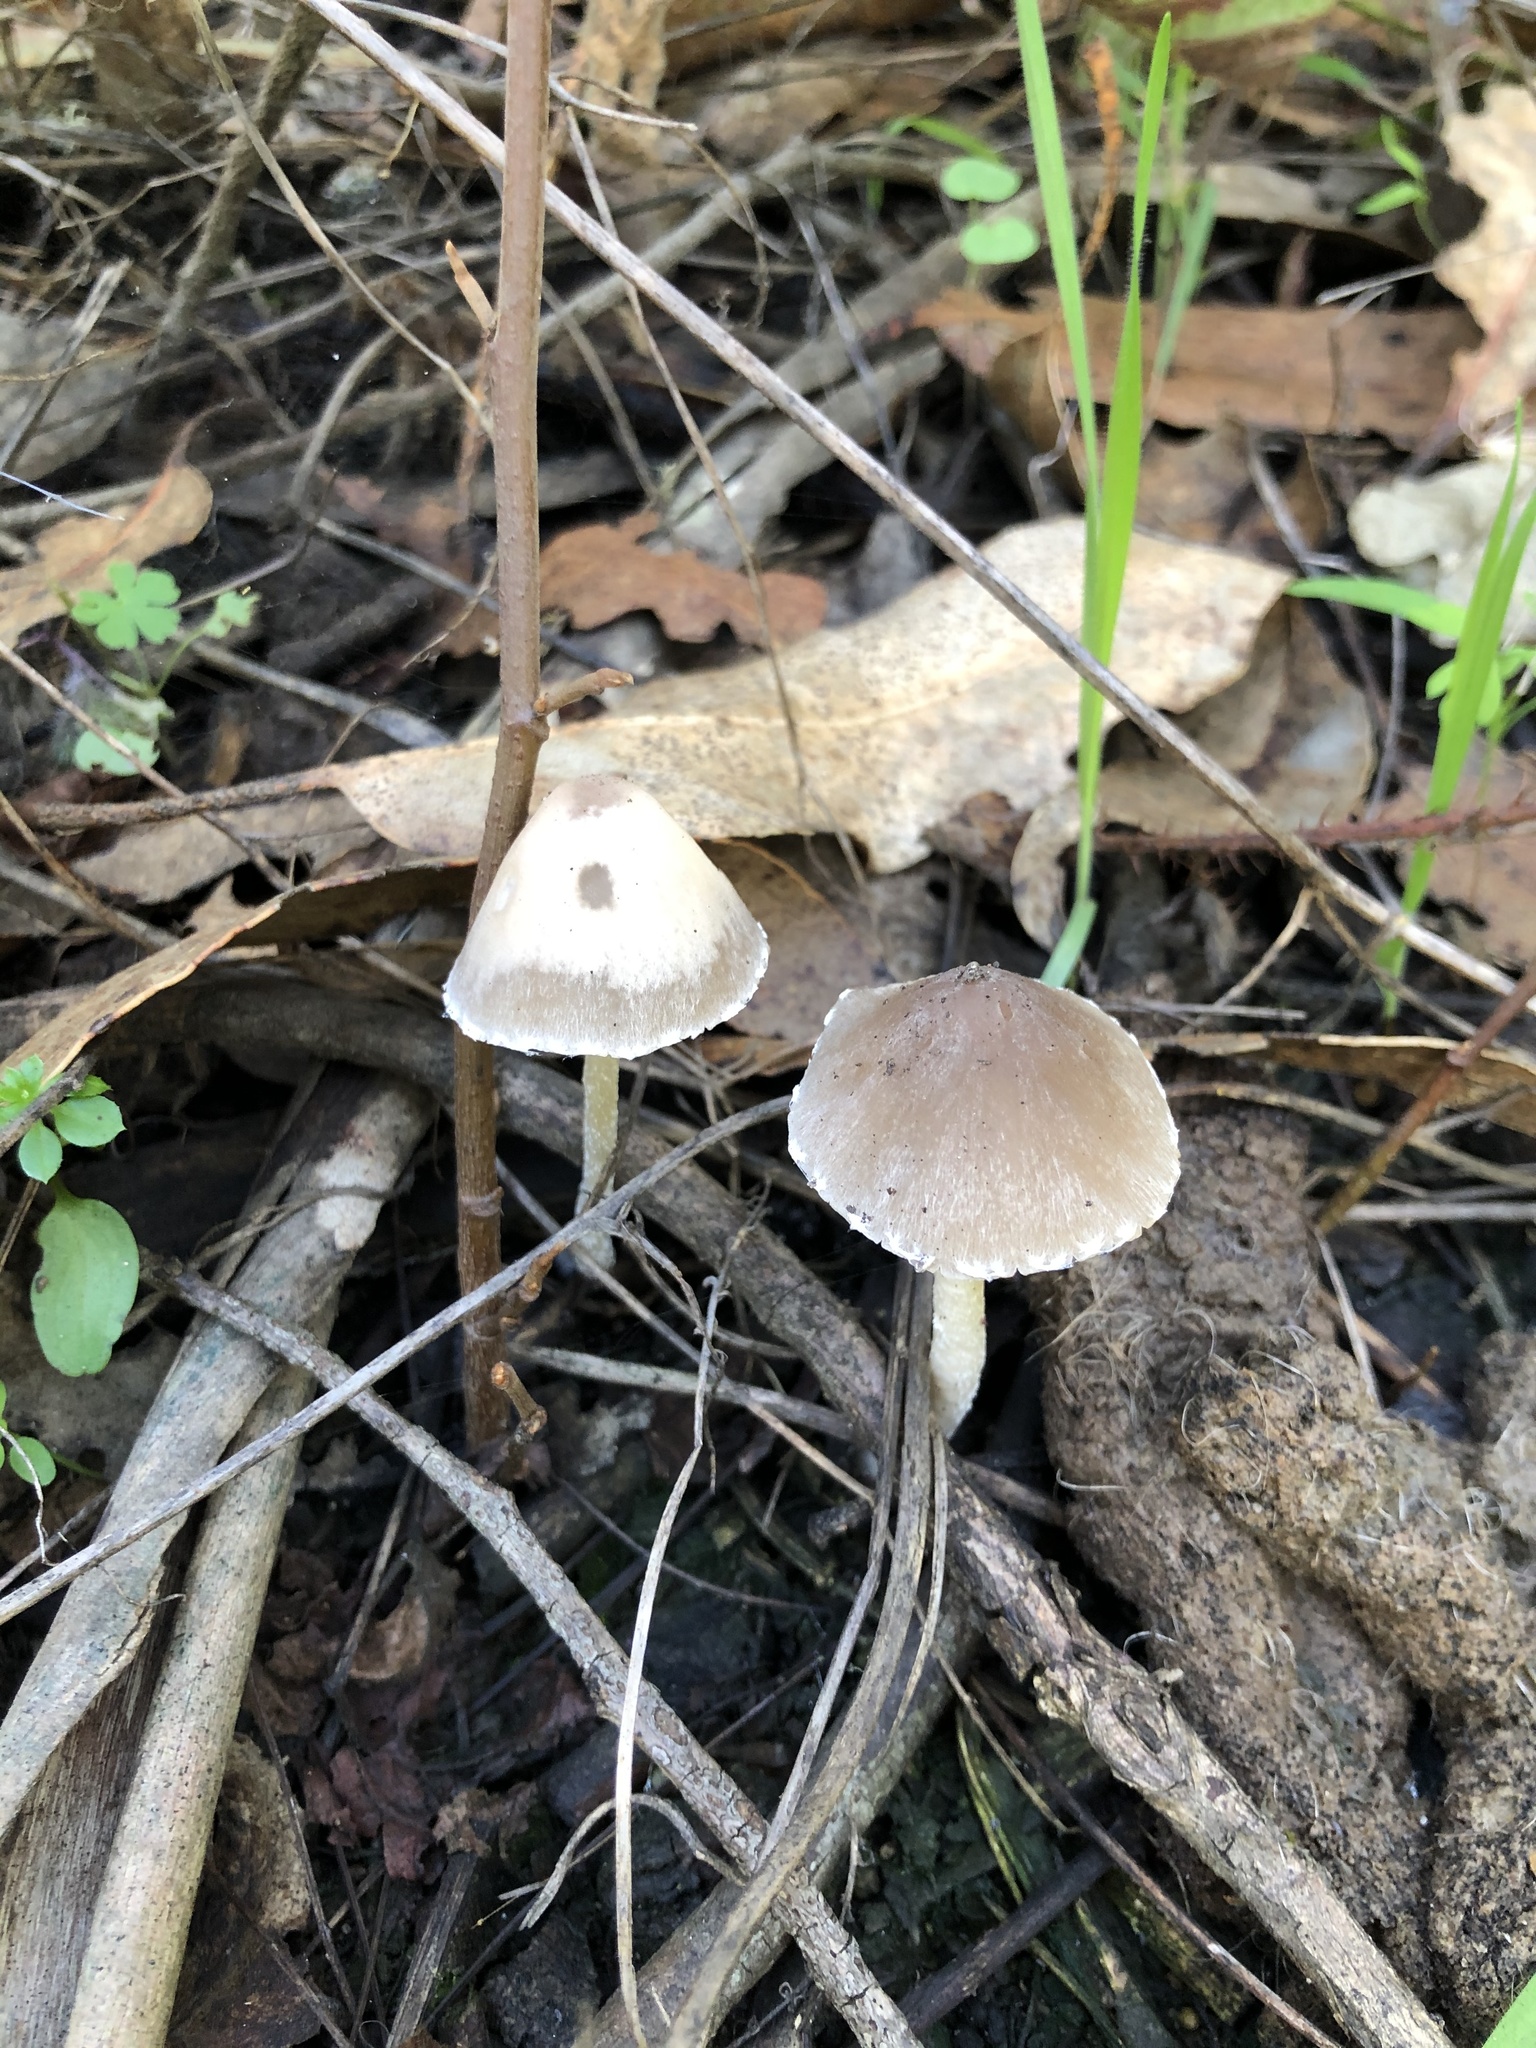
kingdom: Fungi
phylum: Basidiomycota
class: Agaricomycetes
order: Agaricales
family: Psathyrellaceae
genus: Psathyrella
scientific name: Psathyrella longipes
